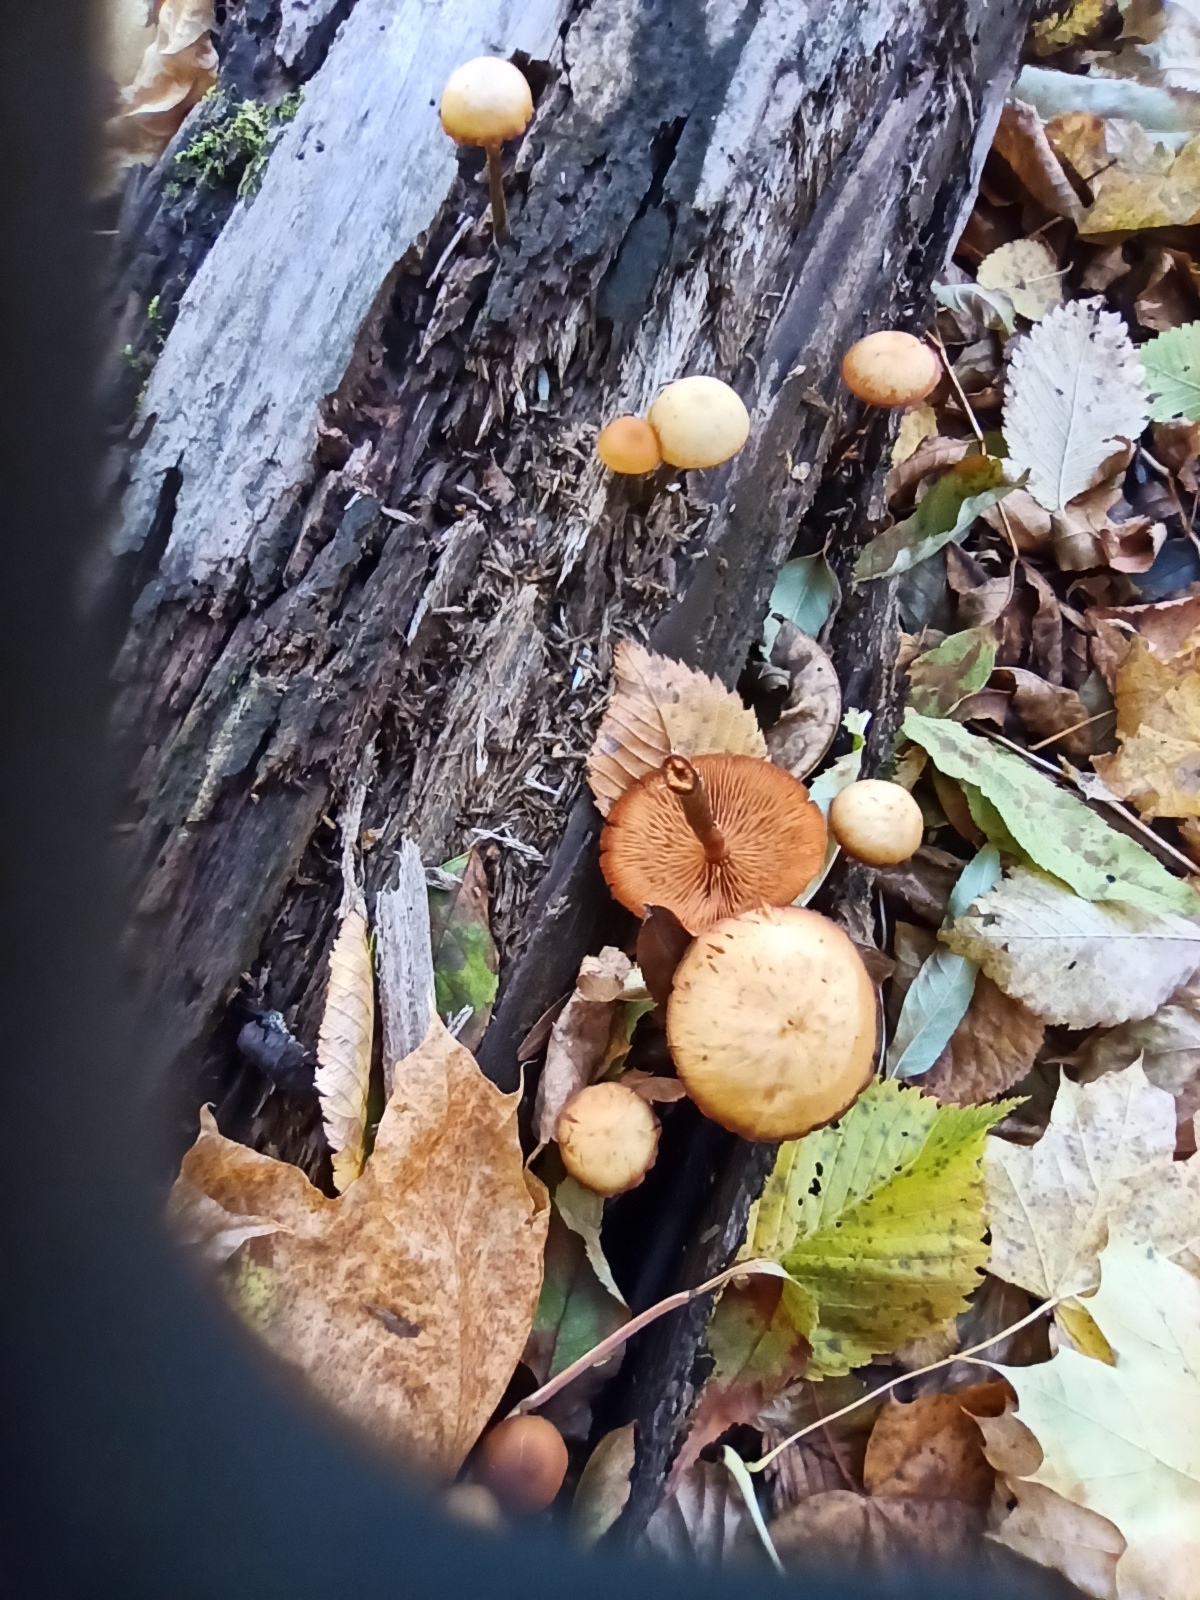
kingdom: Fungi
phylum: Basidiomycota
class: Agaricomycetes
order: Agaricales
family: Hymenogastraceae
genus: Galerina
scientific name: Galerina marginata
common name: Funeral bell
